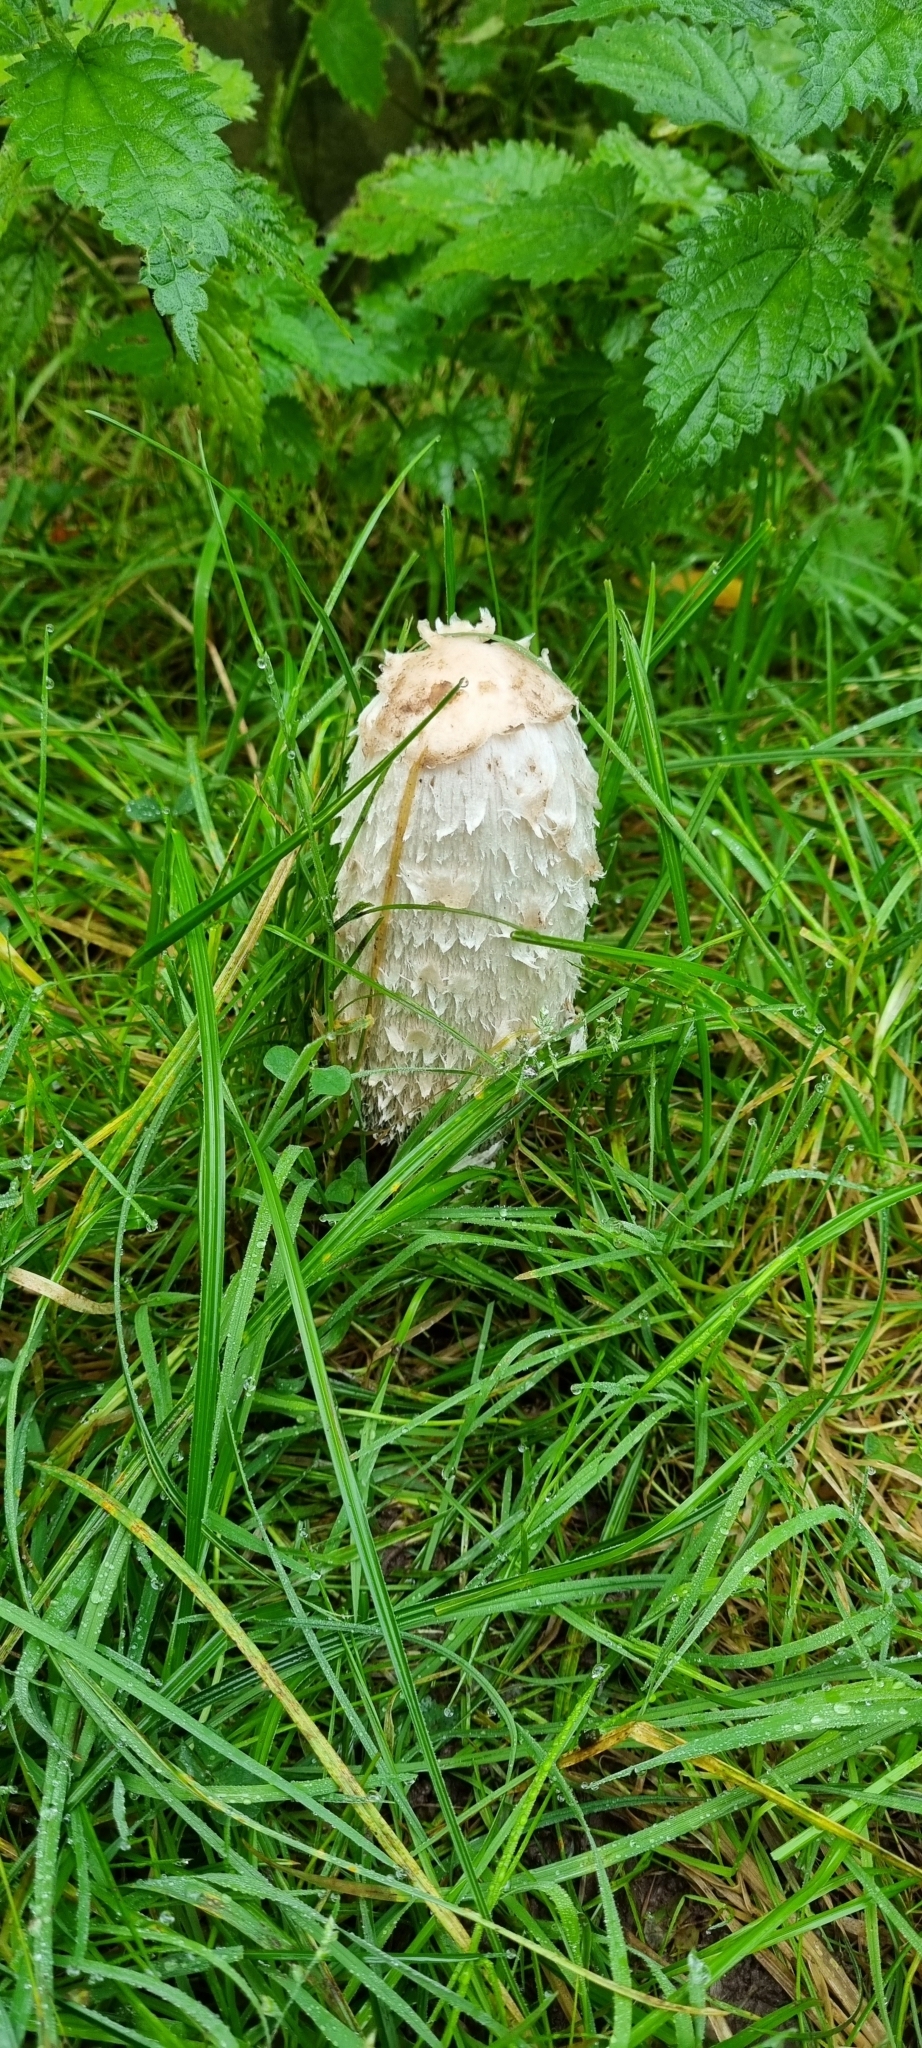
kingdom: Fungi
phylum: Basidiomycota
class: Agaricomycetes
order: Agaricales
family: Agaricaceae
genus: Coprinus
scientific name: Coprinus comatus
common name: Lawyer's wig
